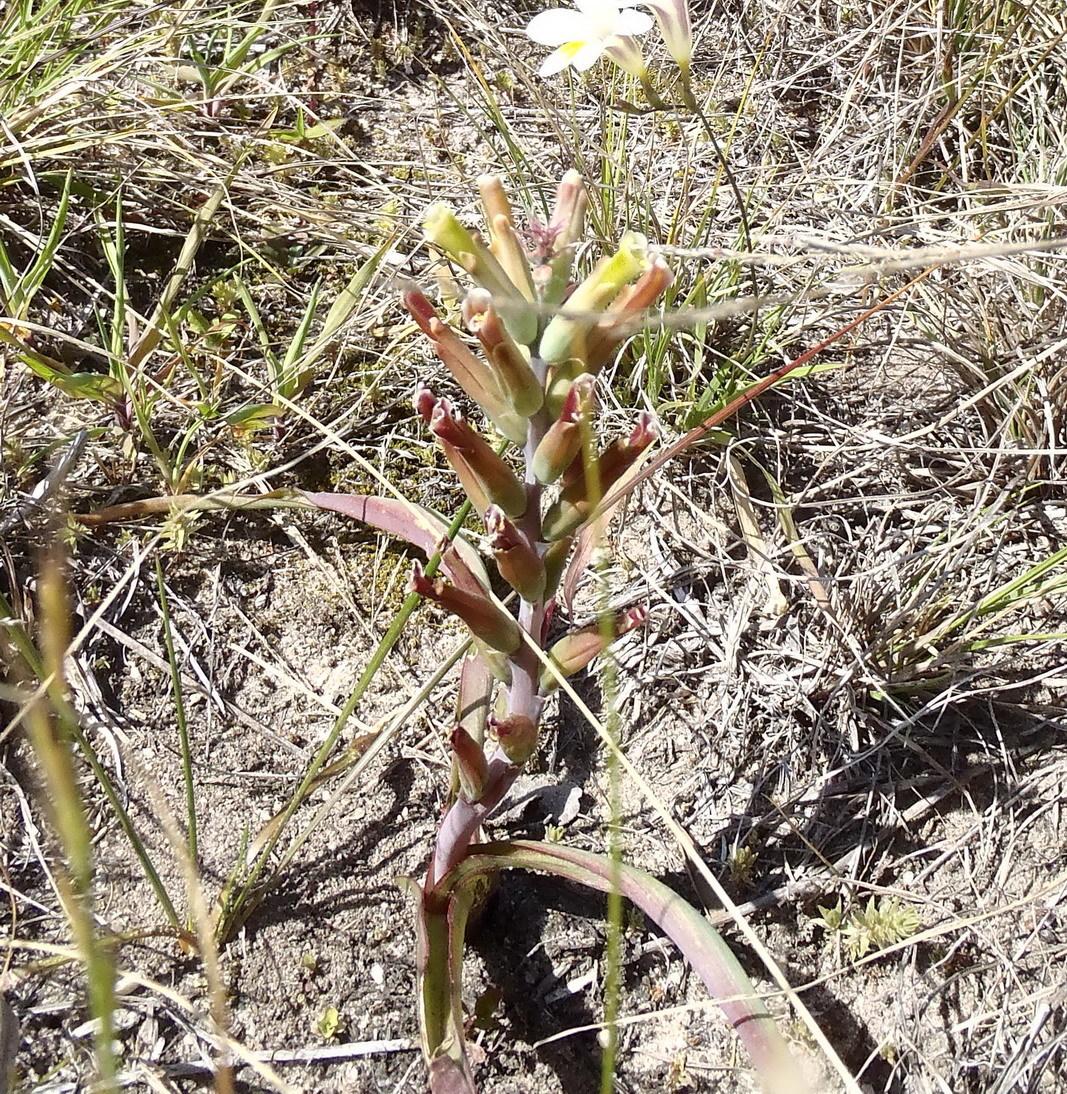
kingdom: Plantae
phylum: Tracheophyta
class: Liliopsida
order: Asparagales
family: Asparagaceae
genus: Lachenalia
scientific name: Lachenalia algoensis
